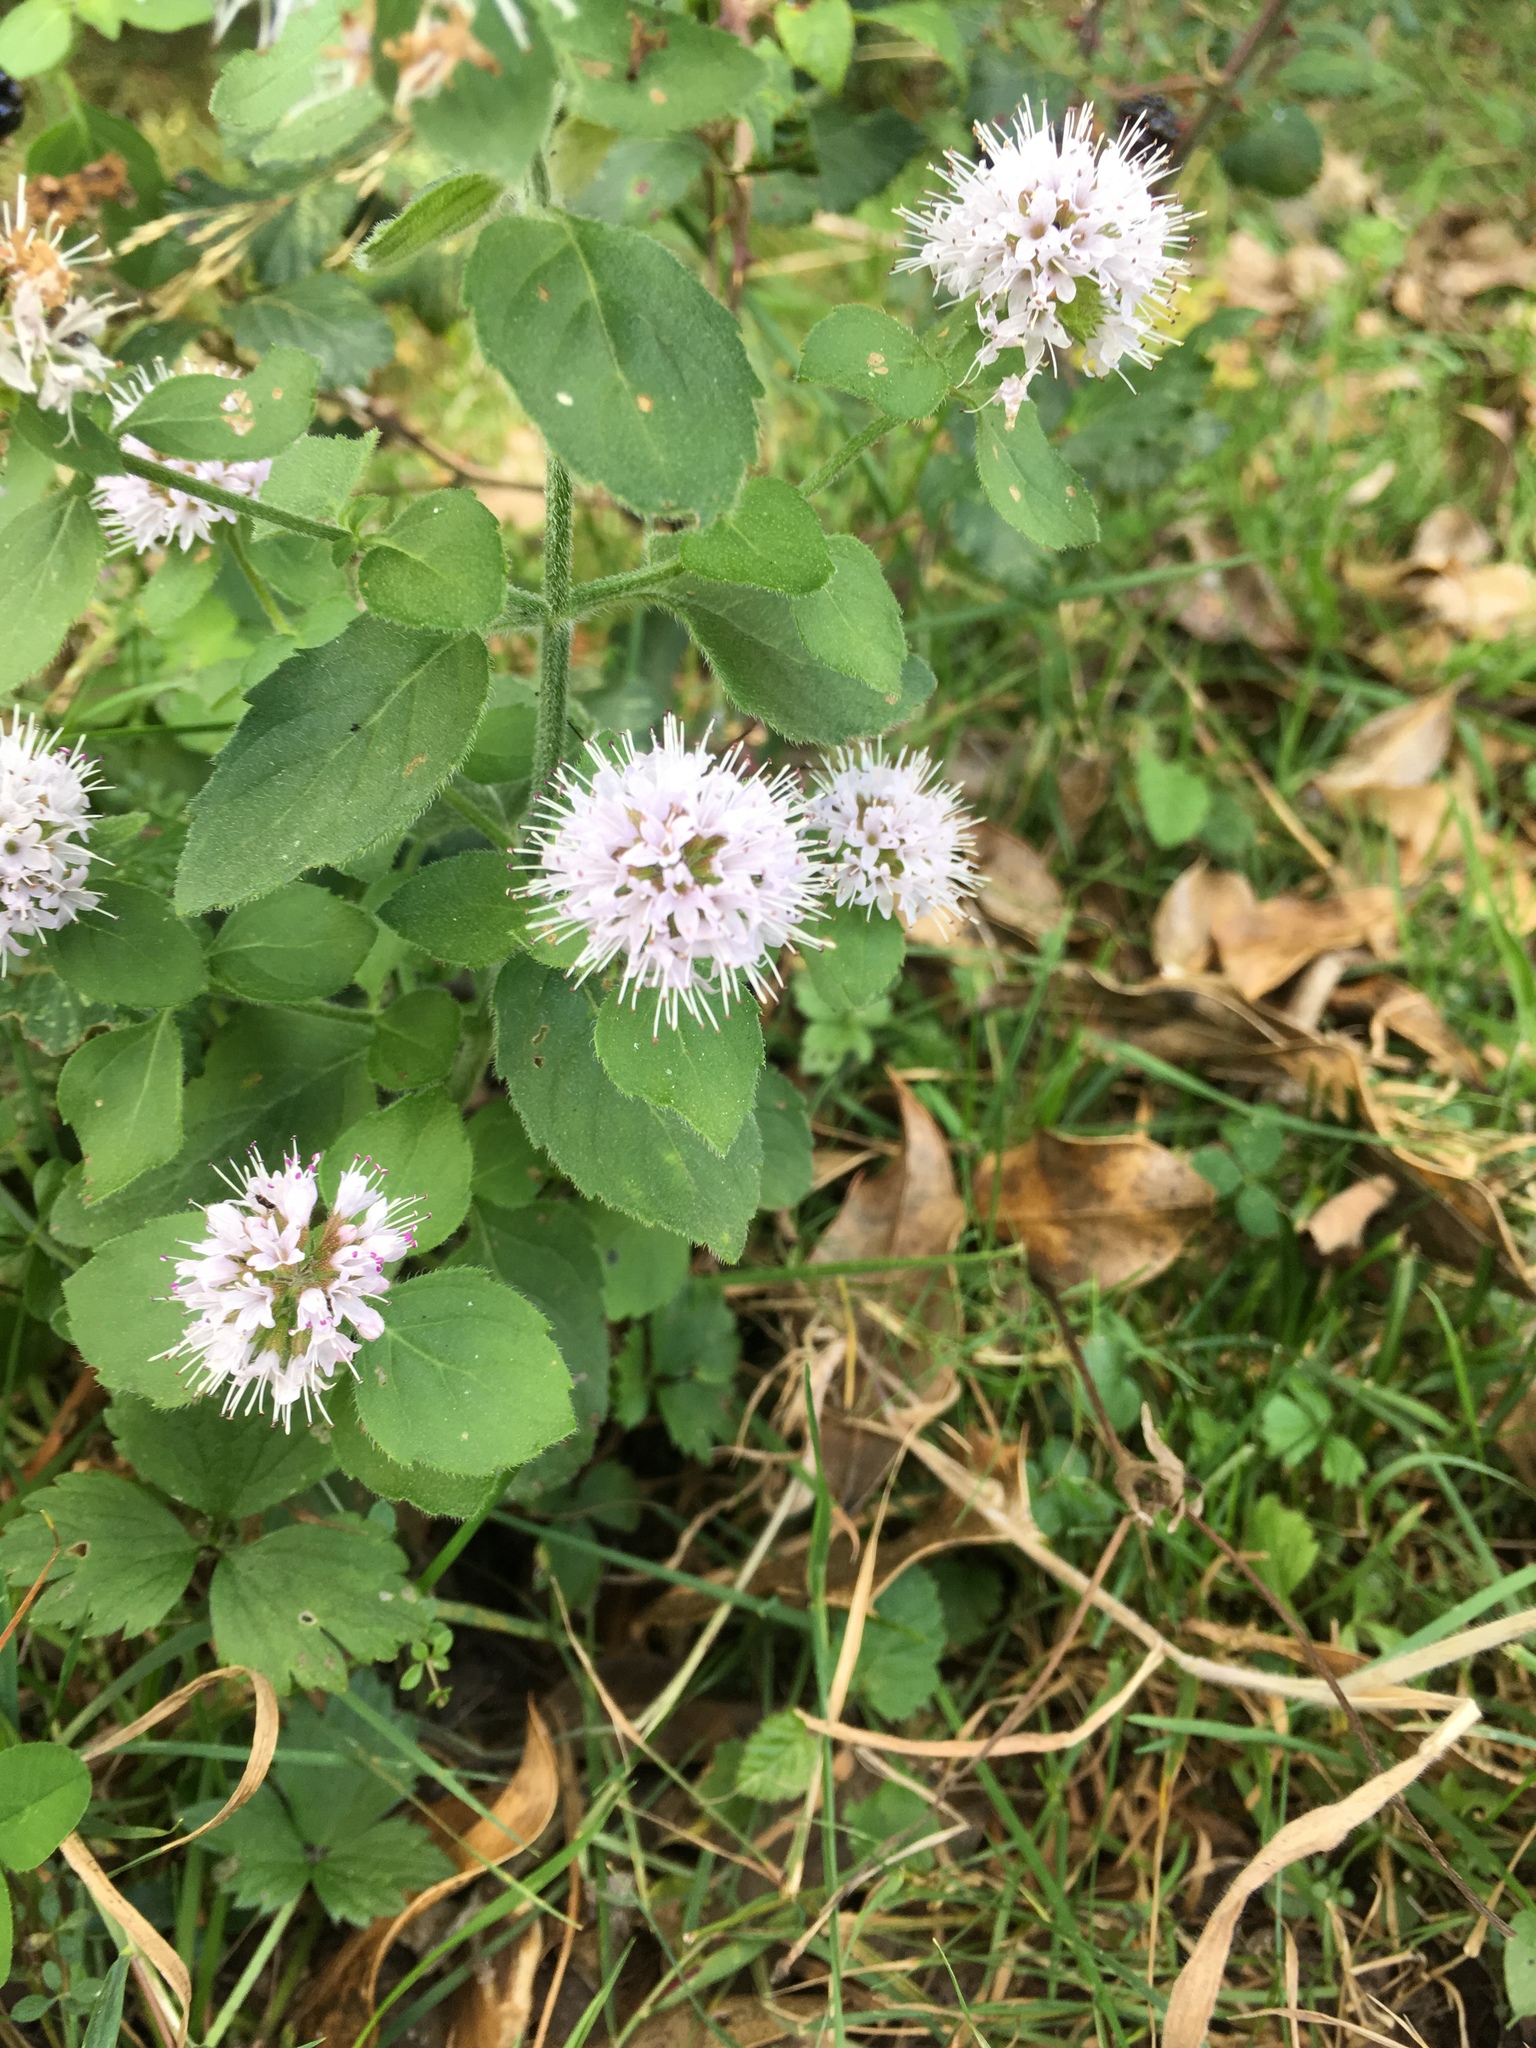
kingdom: Plantae
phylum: Tracheophyta
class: Magnoliopsida
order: Lamiales
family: Lamiaceae
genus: Mentha
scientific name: Mentha aquatica
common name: Water mint
